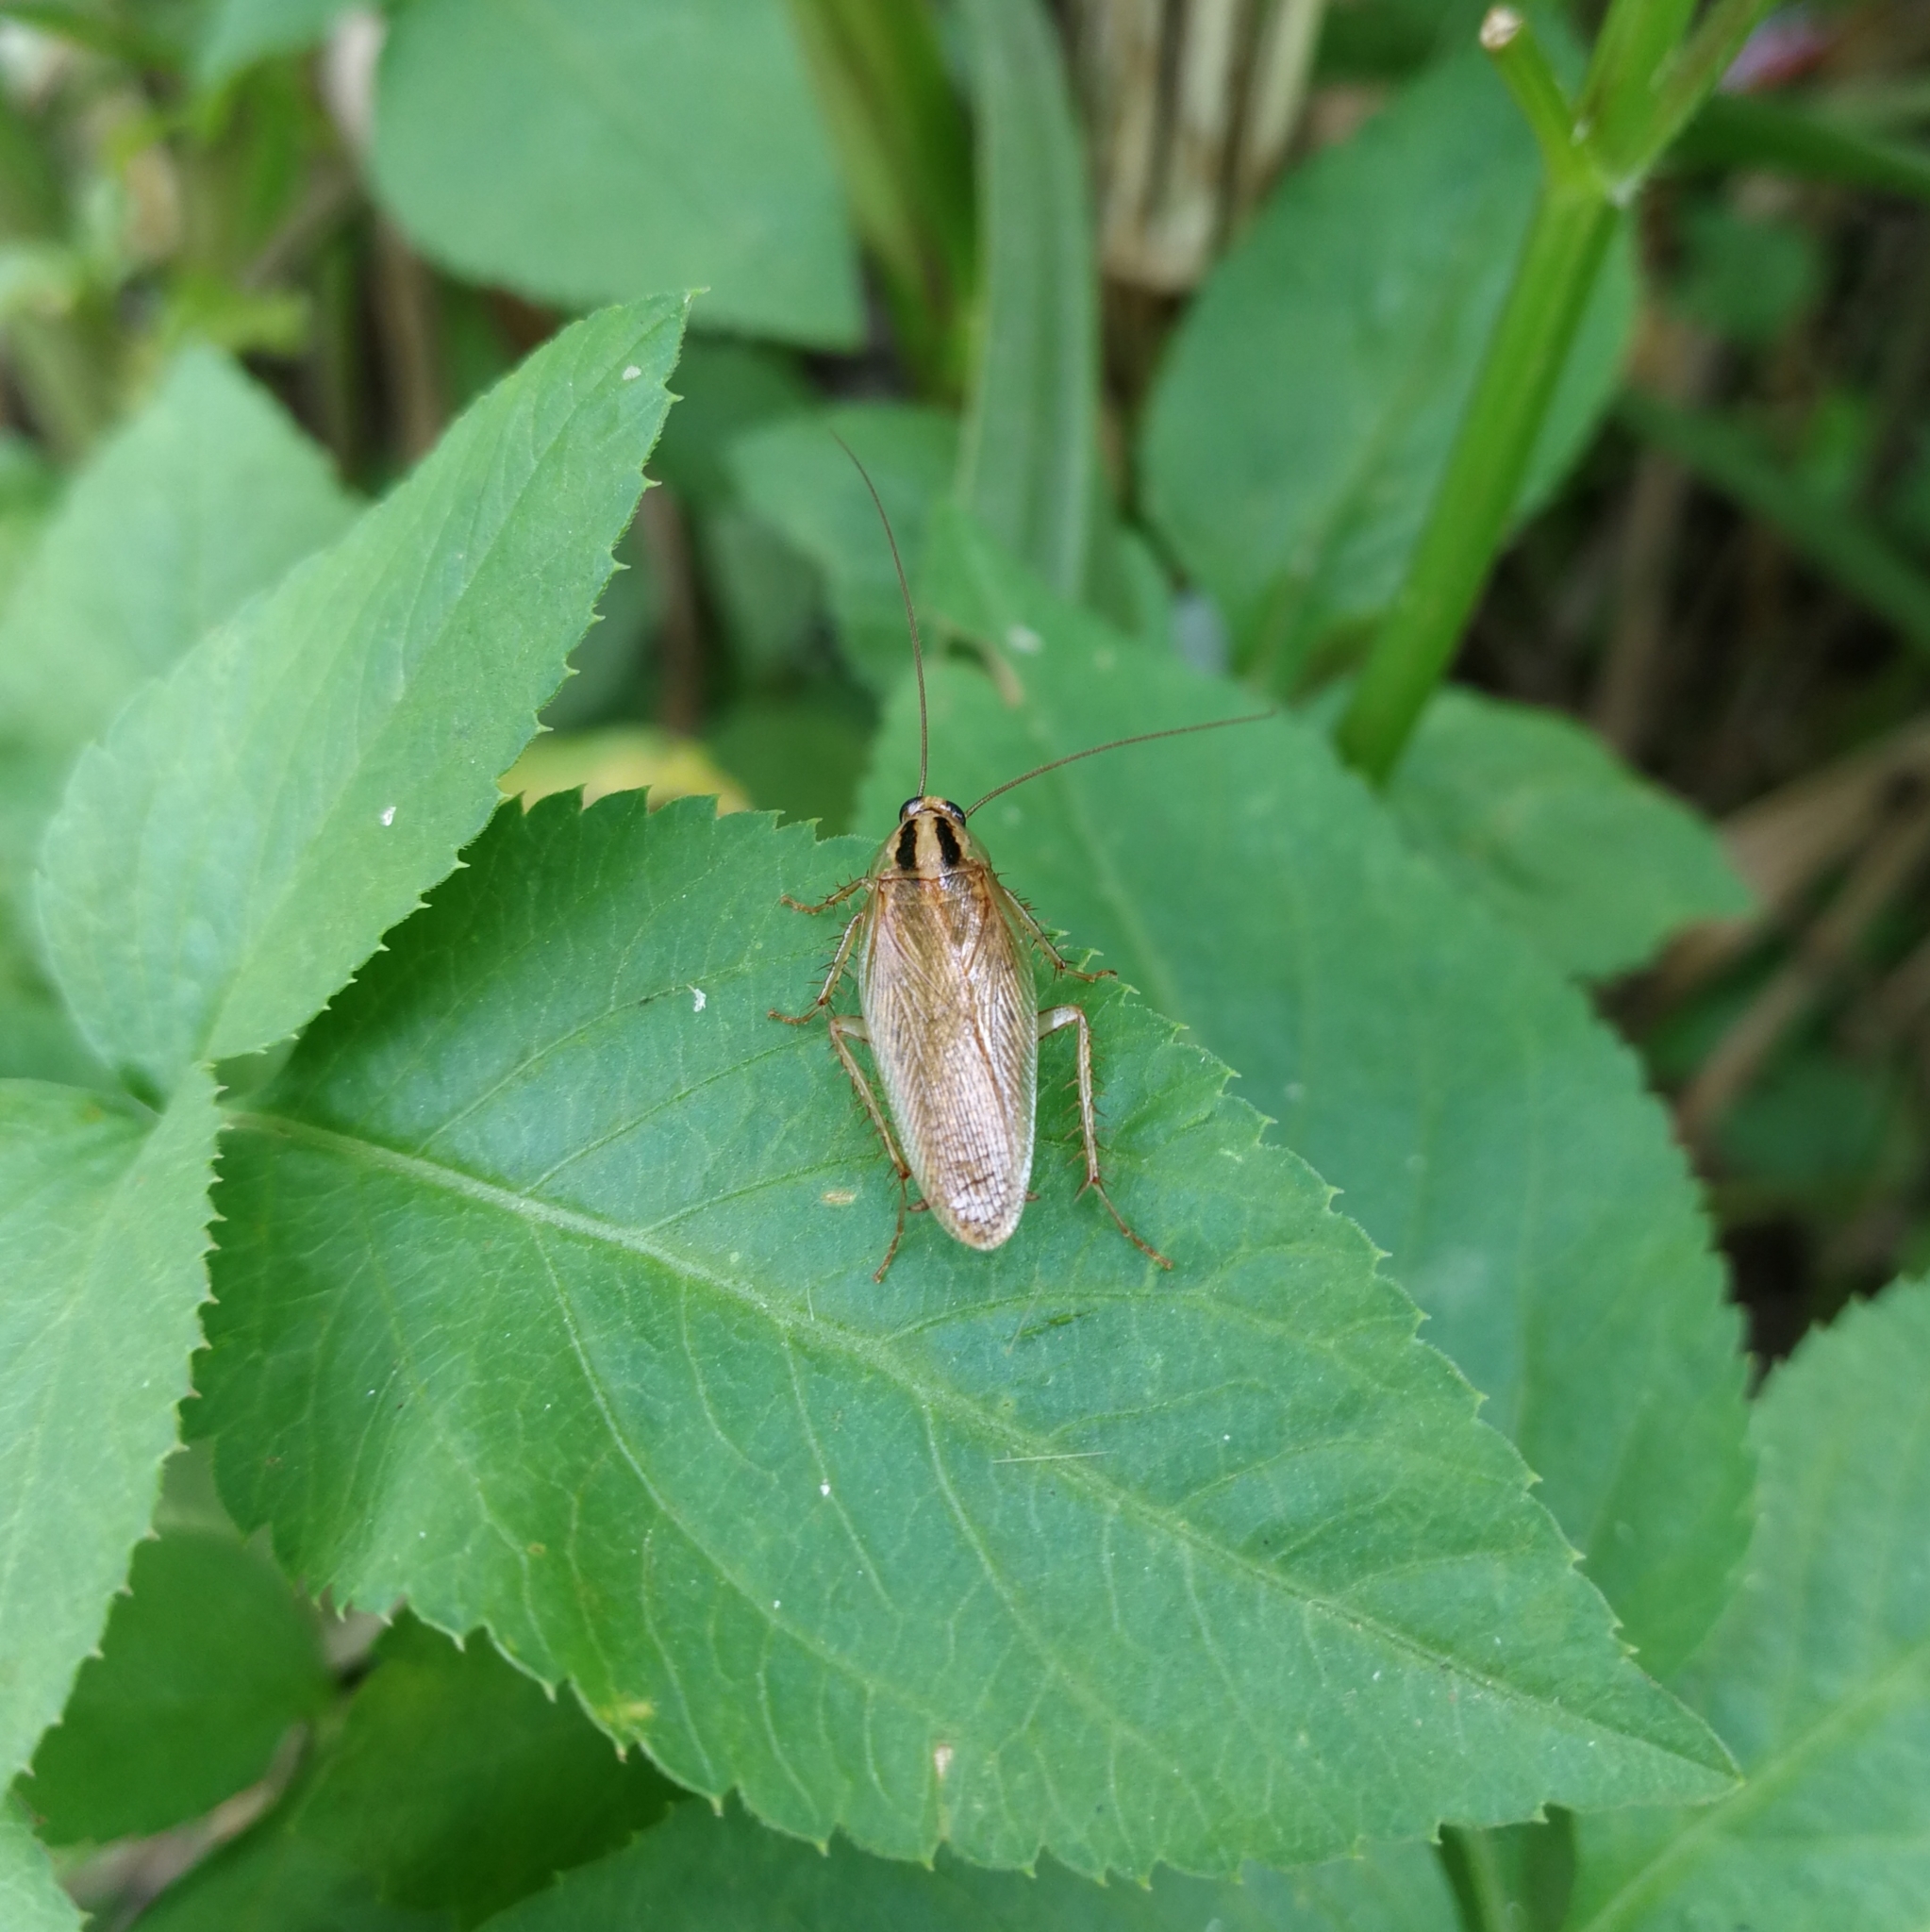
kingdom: Animalia
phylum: Arthropoda
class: Insecta
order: Blattodea
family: Ectobiidae
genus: Blattella
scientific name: Blattella asahinai
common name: Asian cockroach
